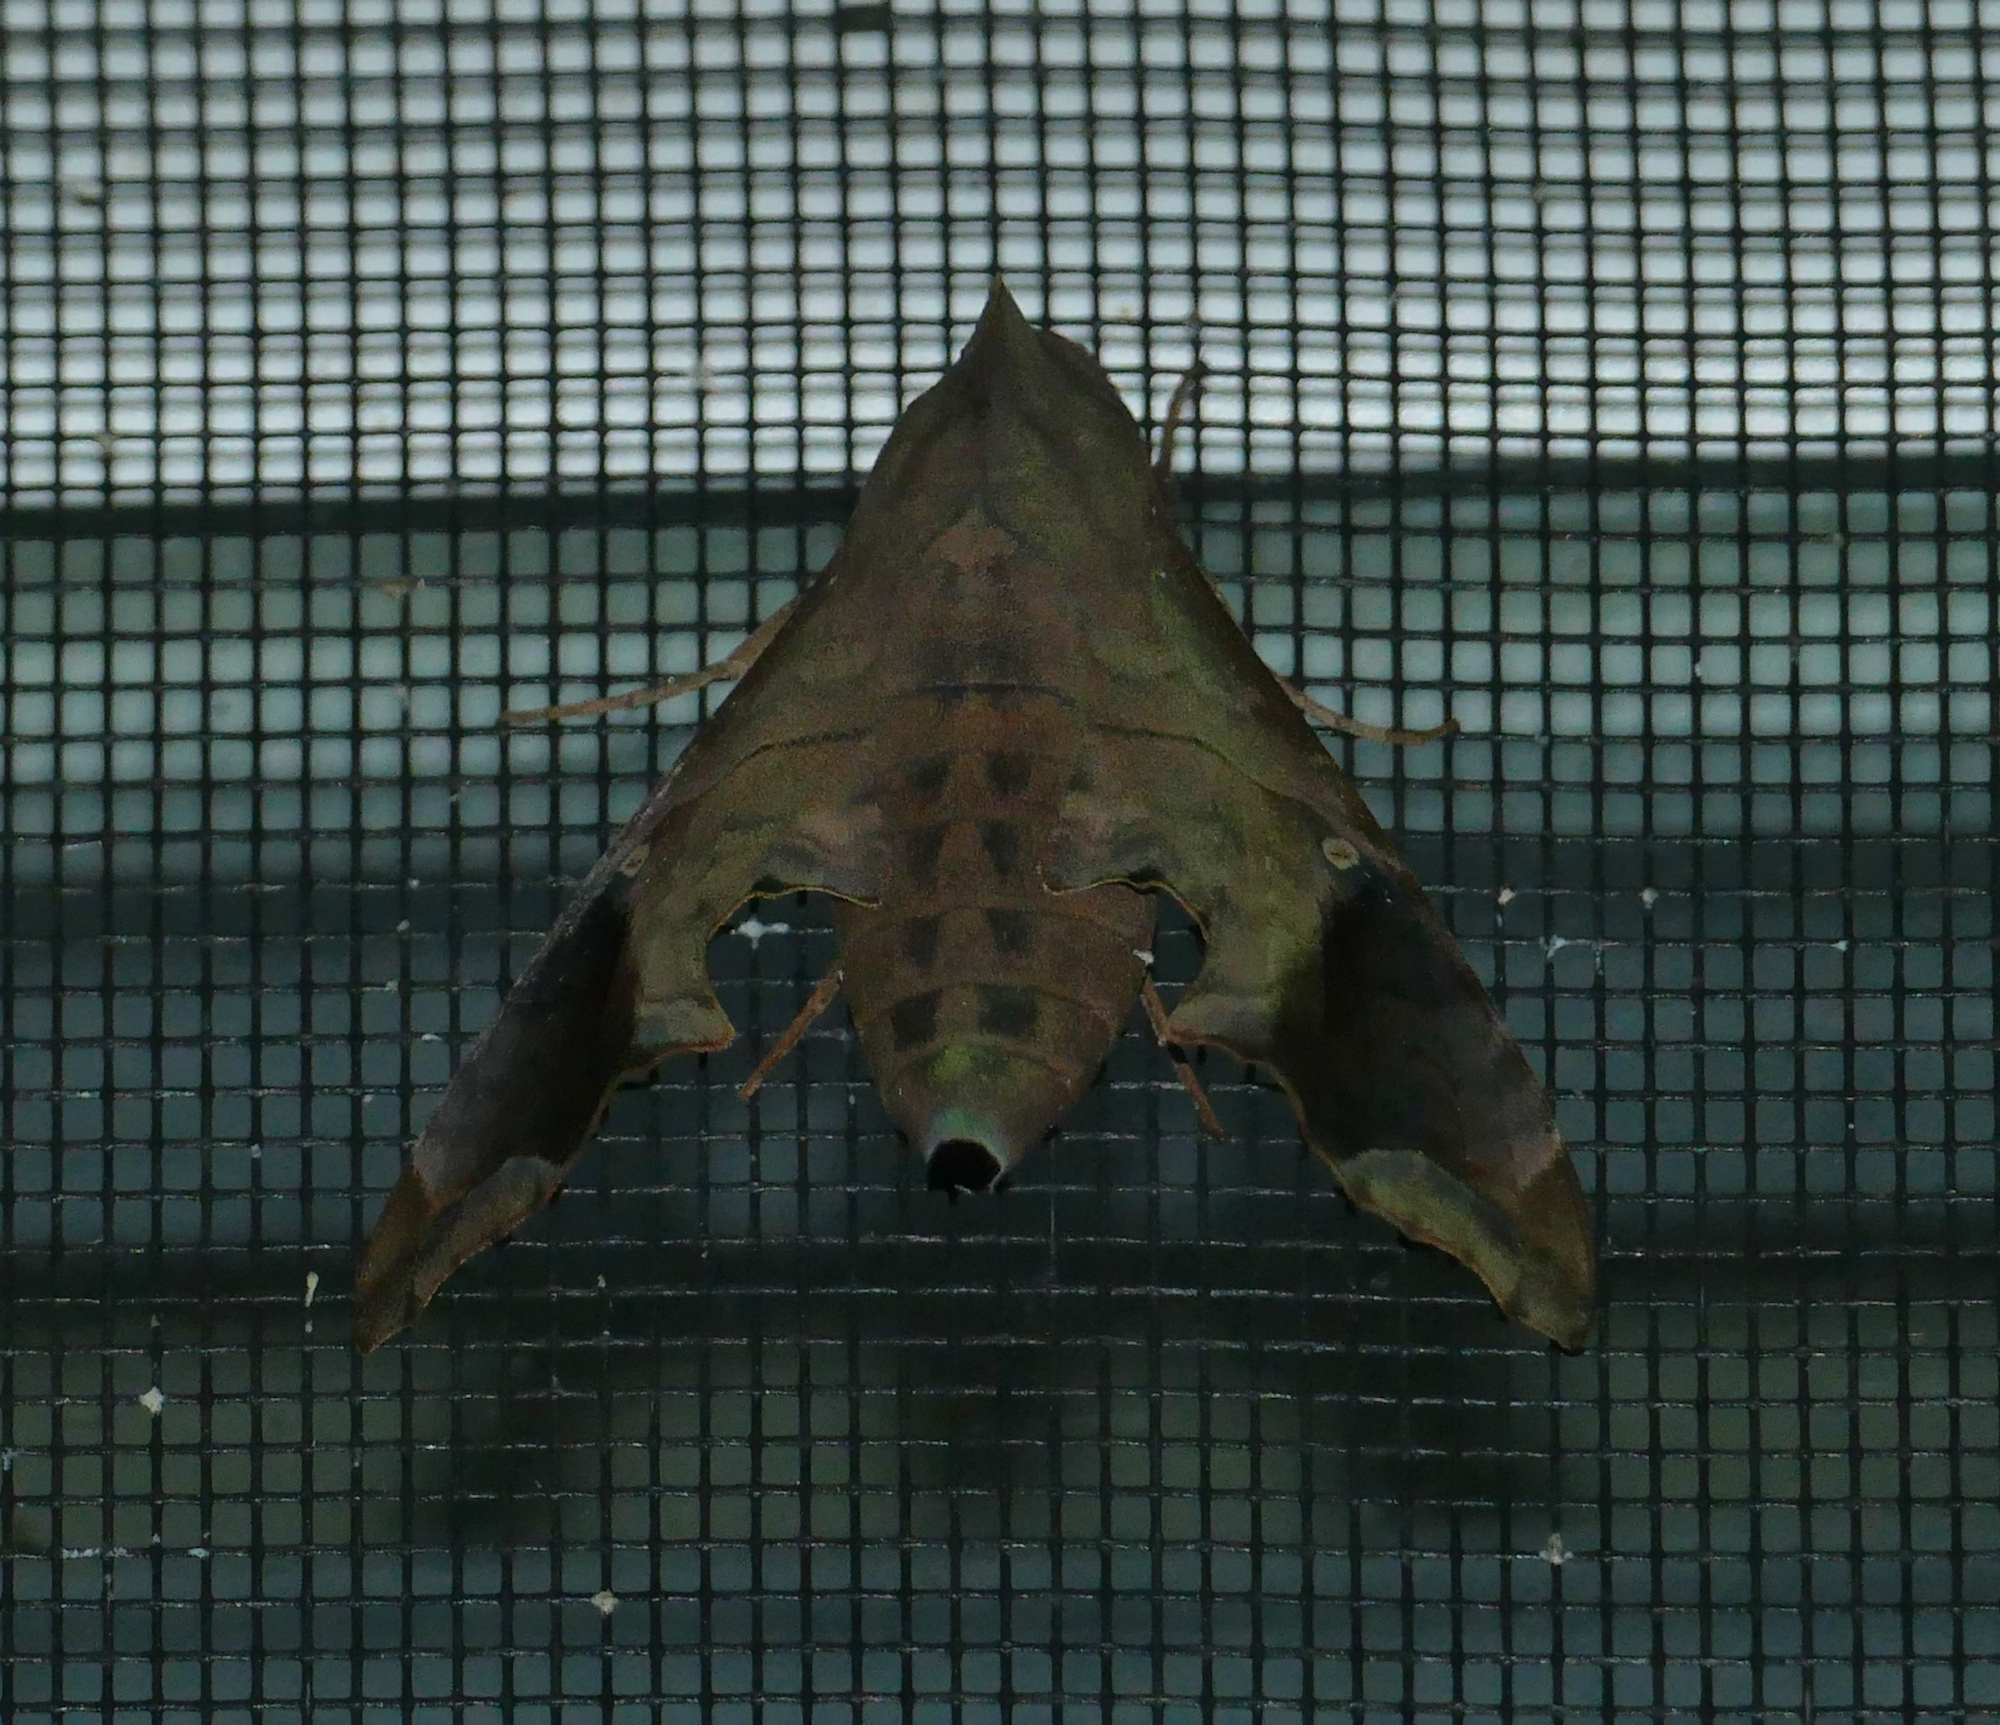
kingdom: Animalia
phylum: Arthropoda
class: Insecta
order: Lepidoptera
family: Sphingidae
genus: Enyo
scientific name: Enyo lugubris
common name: Mournful sphinx
